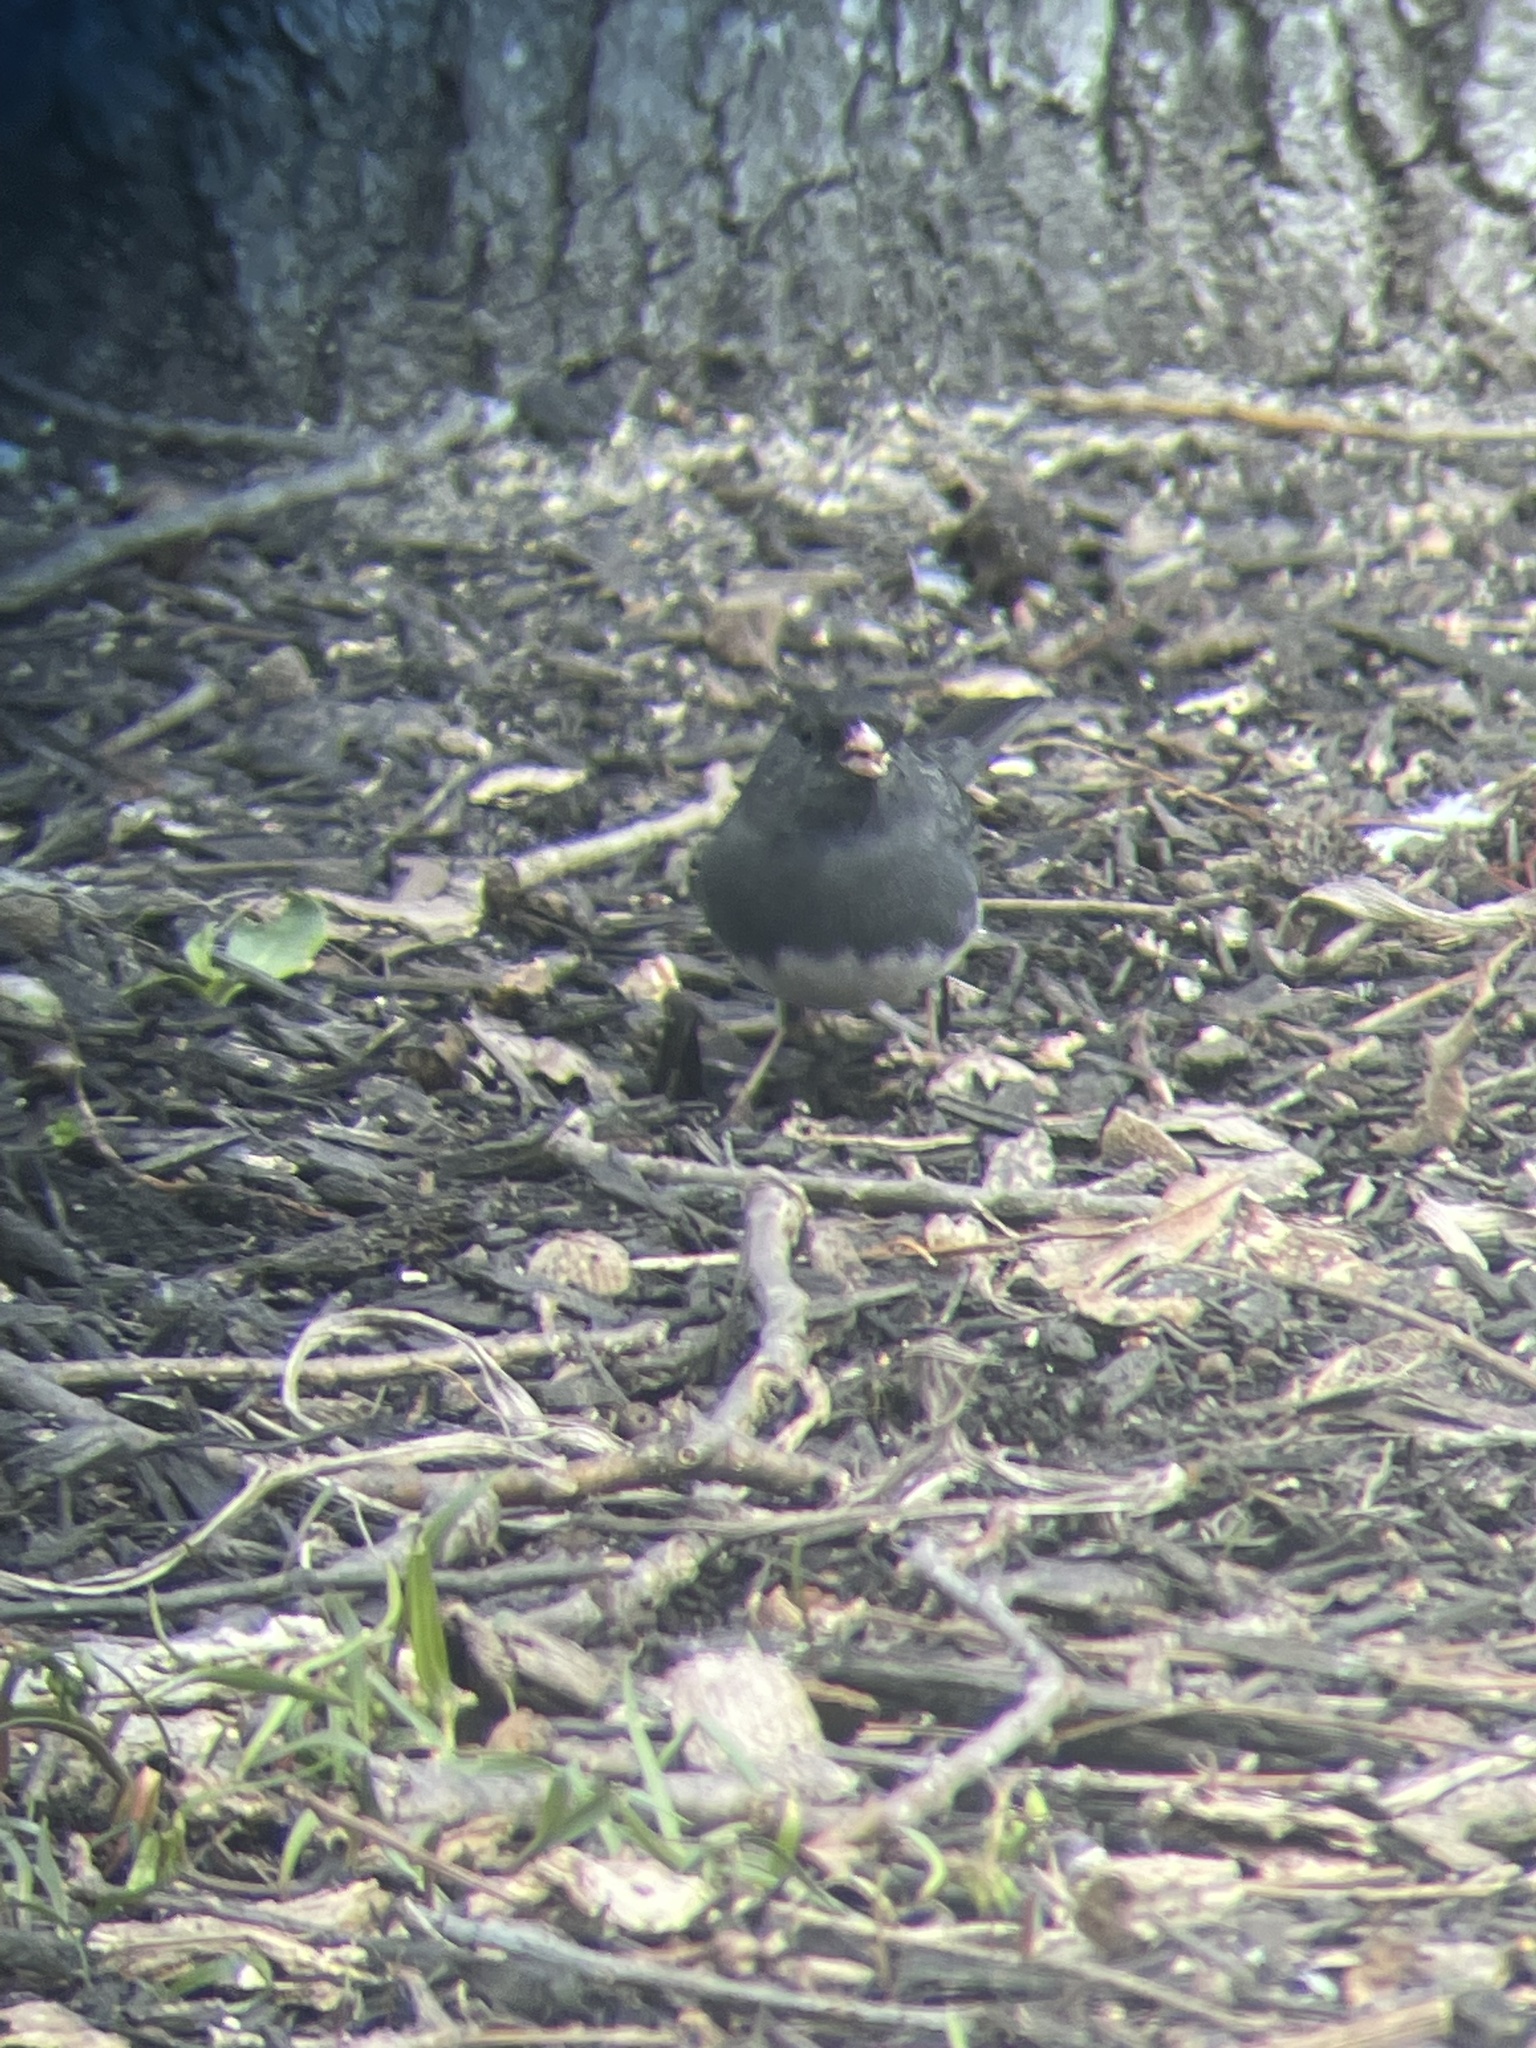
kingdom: Animalia
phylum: Chordata
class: Aves
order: Passeriformes
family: Passerellidae
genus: Junco
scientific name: Junco hyemalis
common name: Dark-eyed junco
